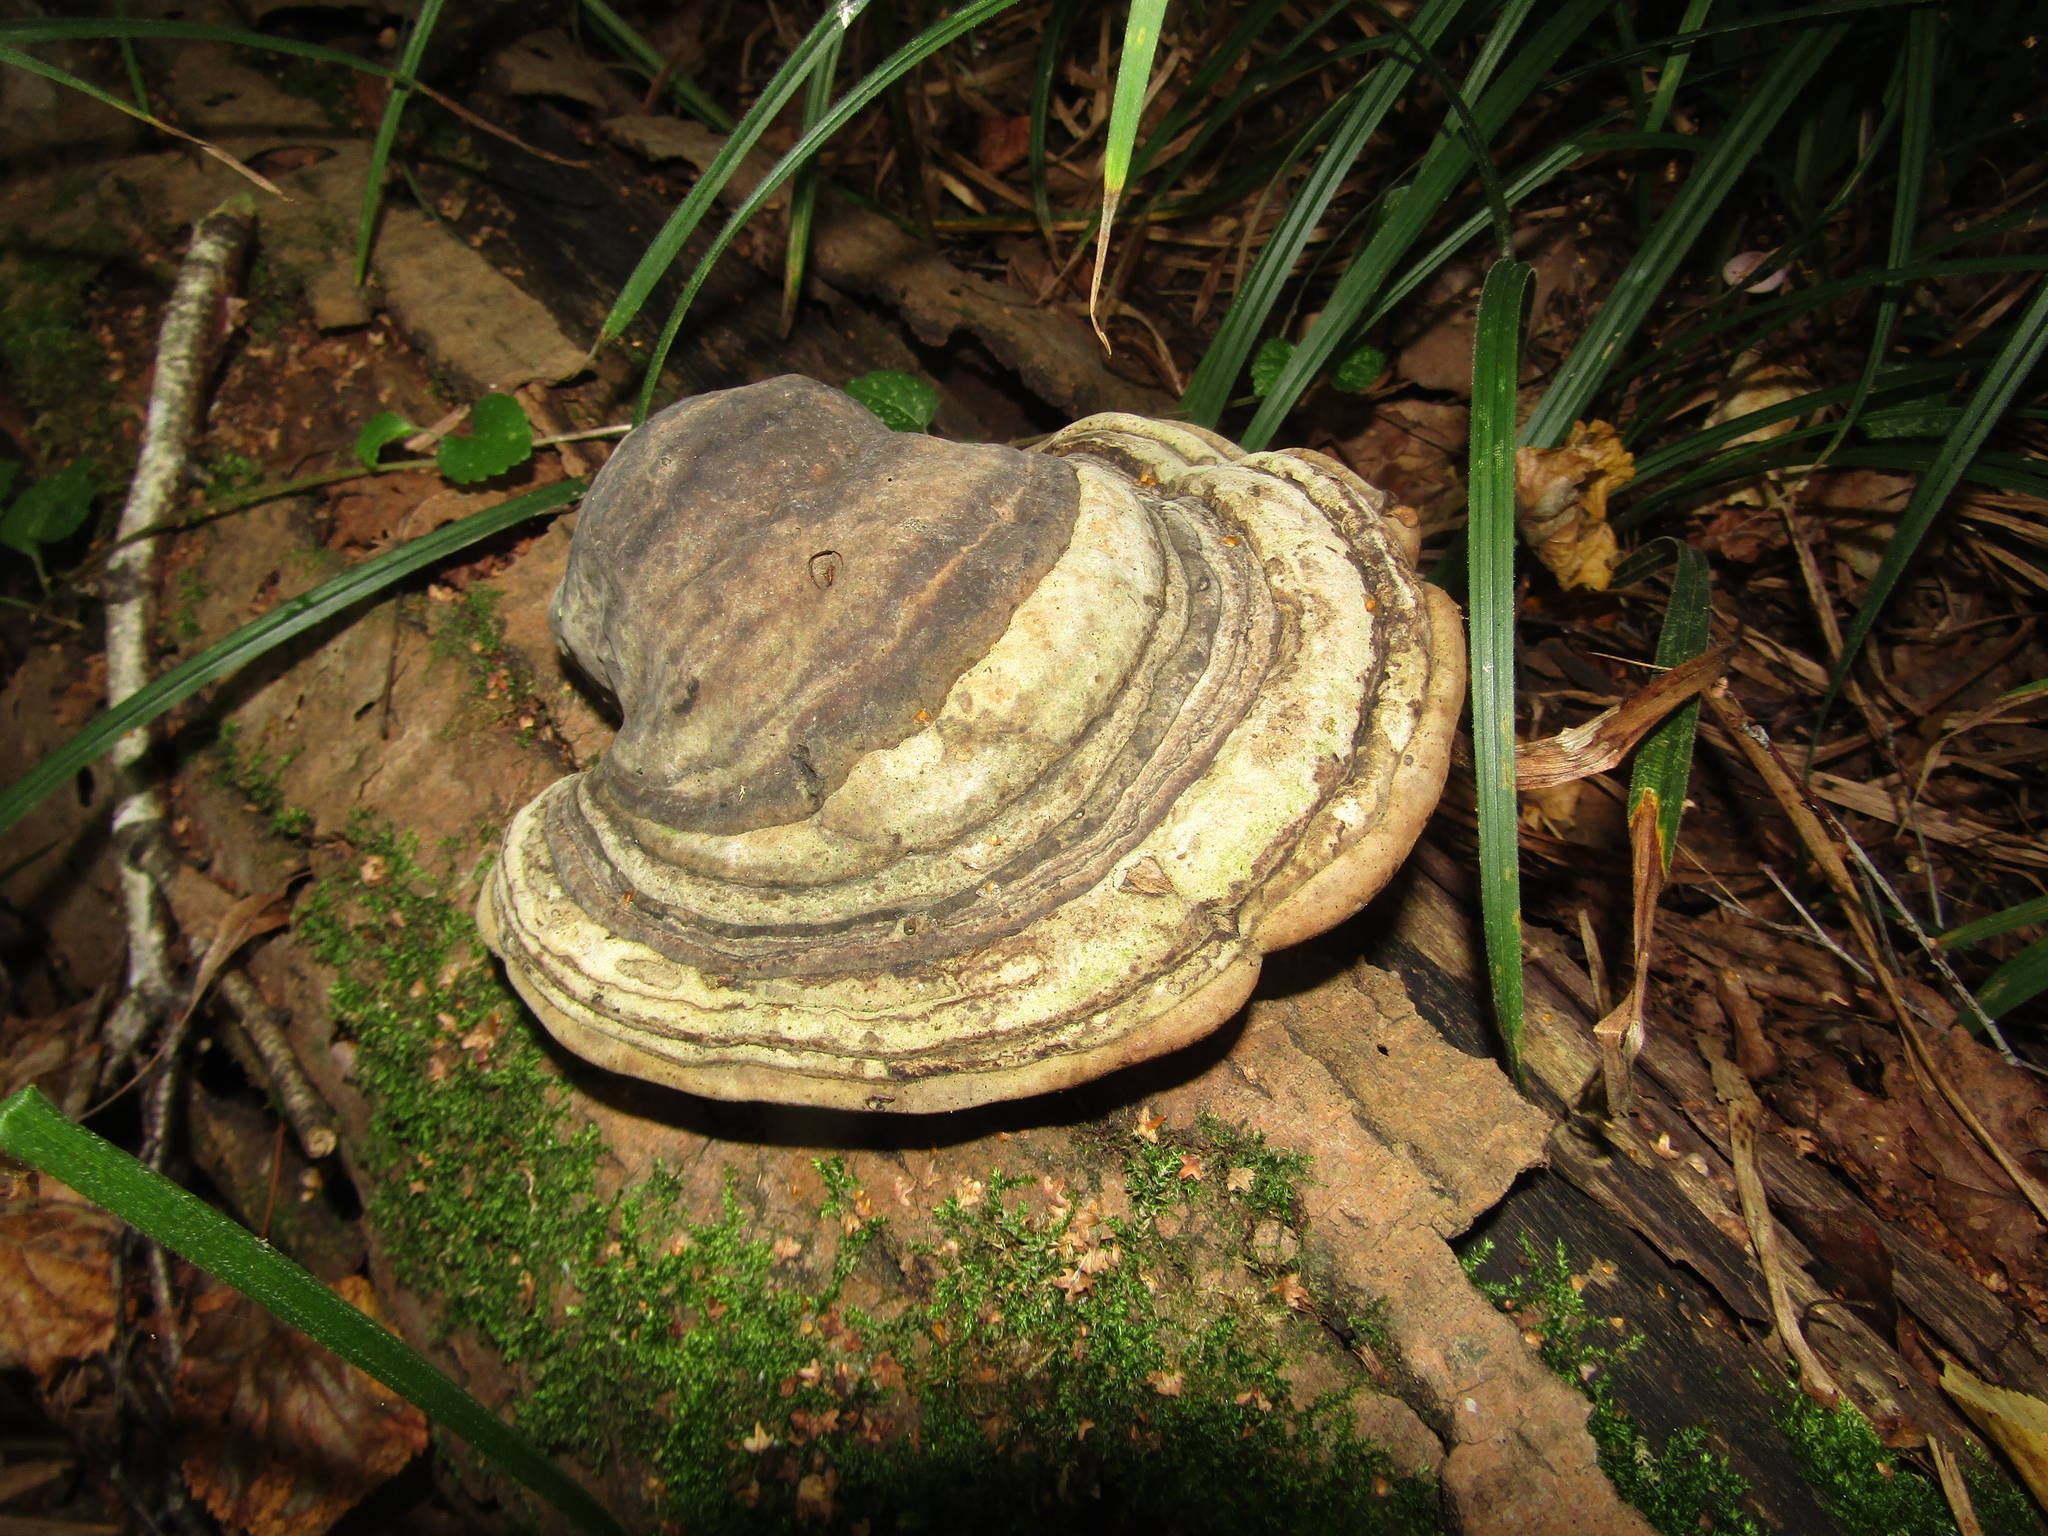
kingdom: Fungi
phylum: Basidiomycota
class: Agaricomycetes
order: Polyporales
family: Polyporaceae
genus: Fomes
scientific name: Fomes fomentarius
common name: Hoof fungus
